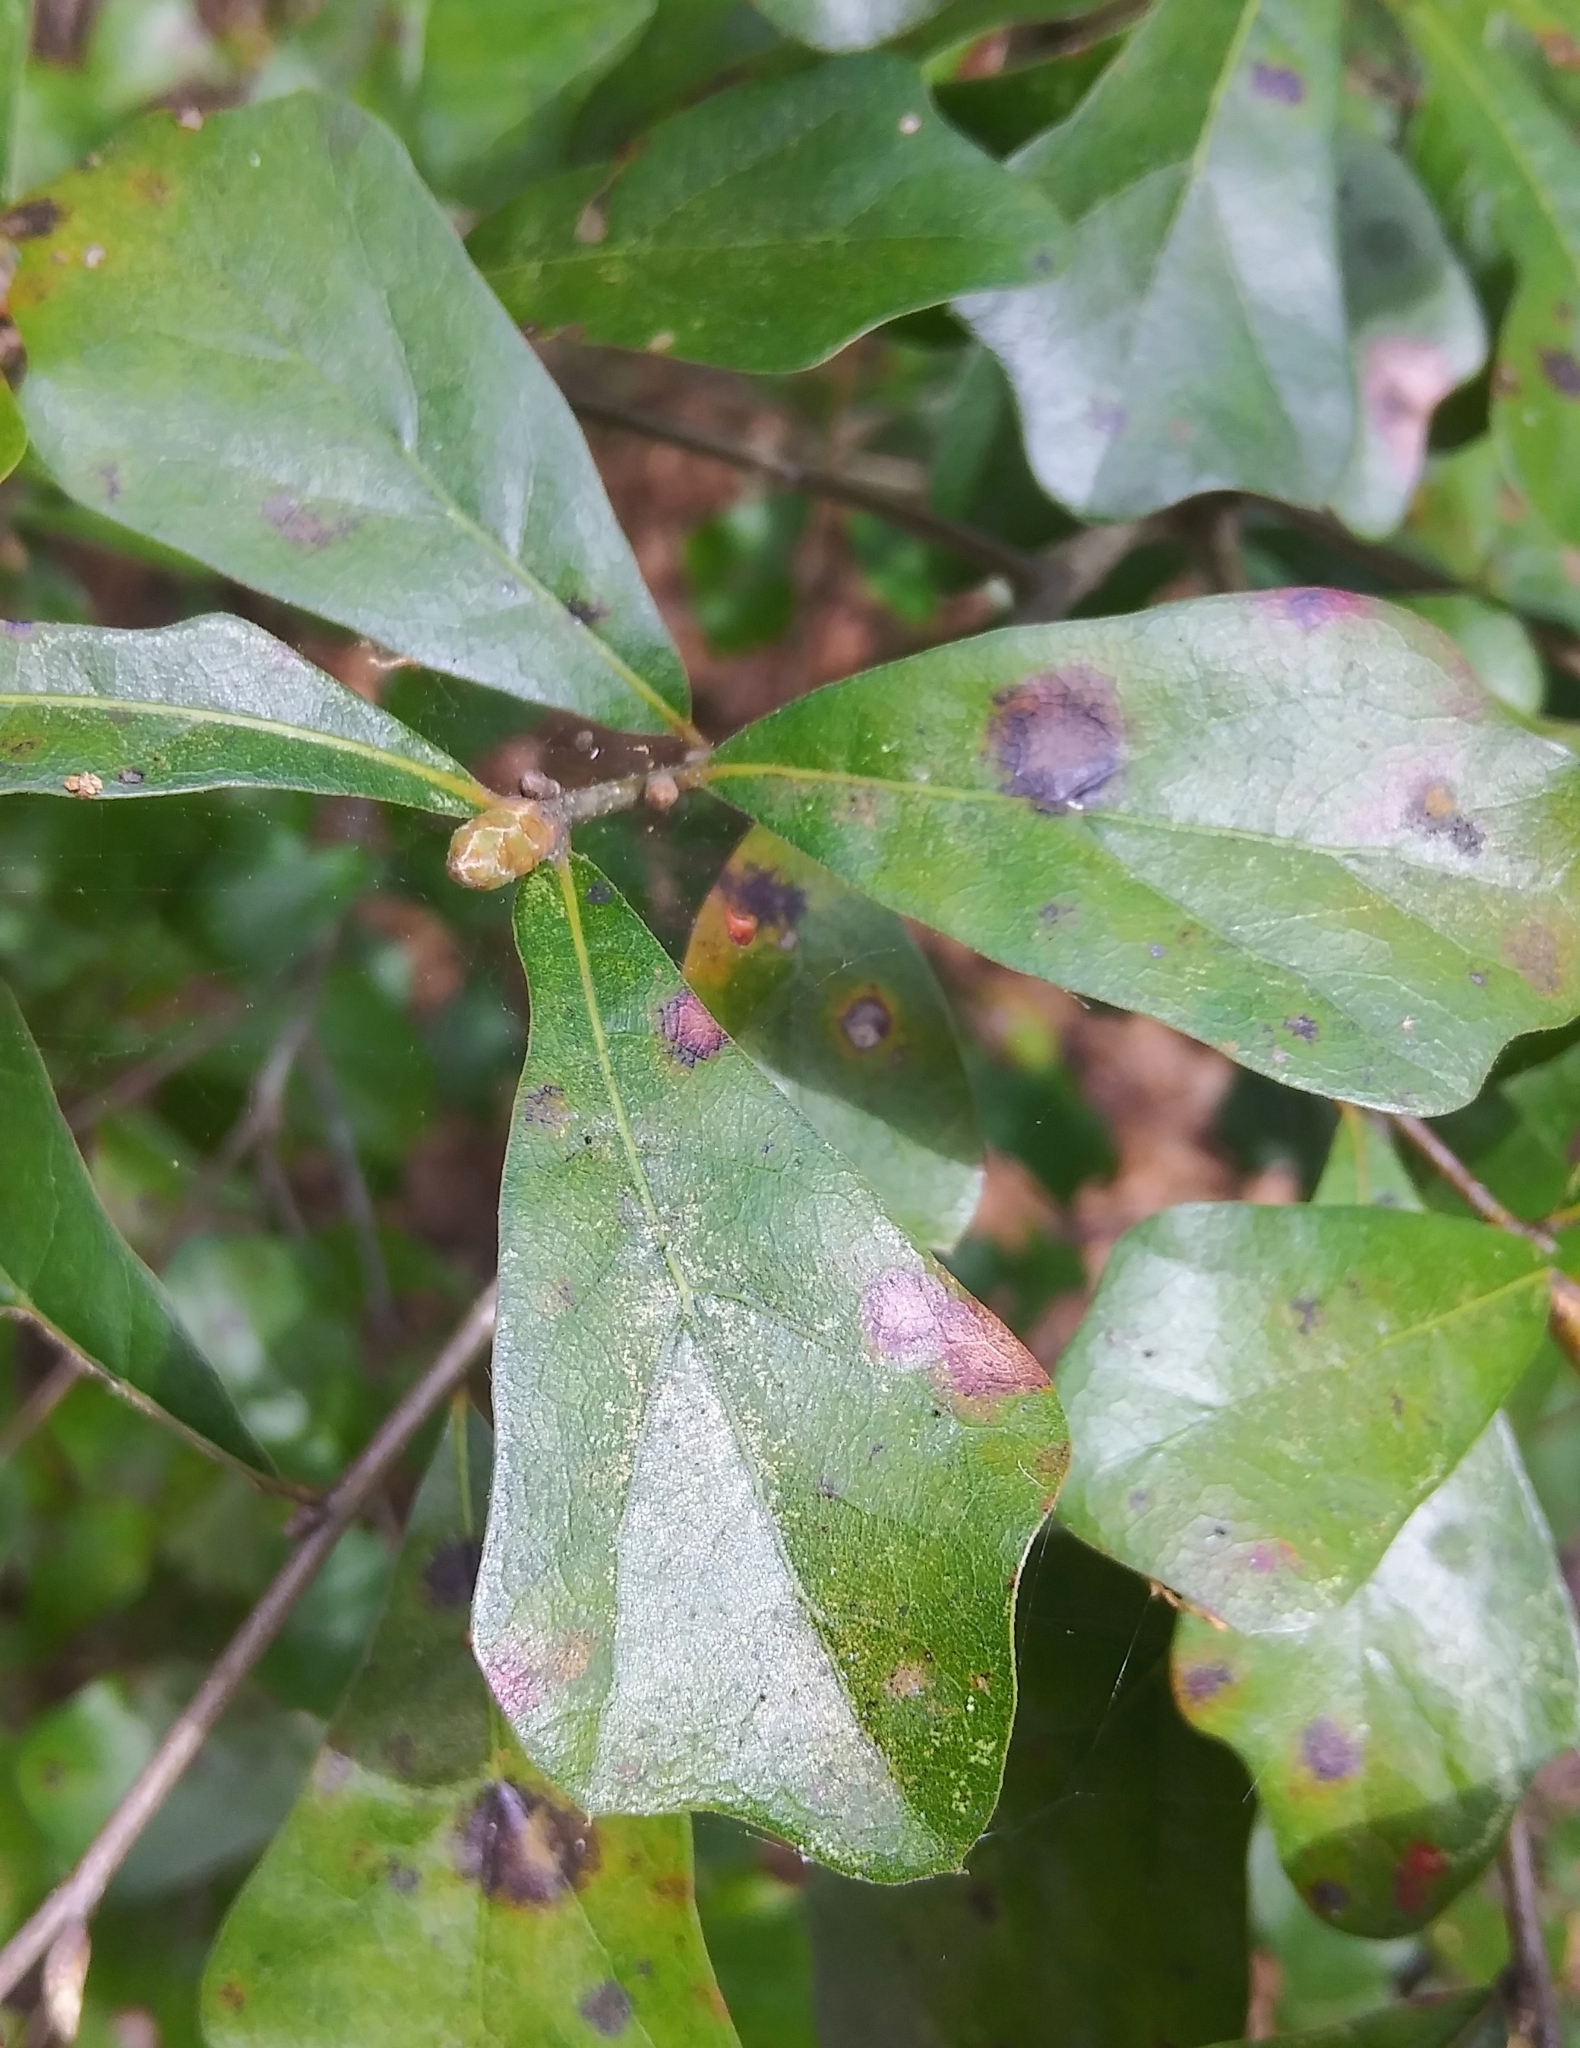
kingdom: Plantae
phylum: Tracheophyta
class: Magnoliopsida
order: Fagales
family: Fagaceae
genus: Quercus
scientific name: Quercus nigra
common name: Water oak
